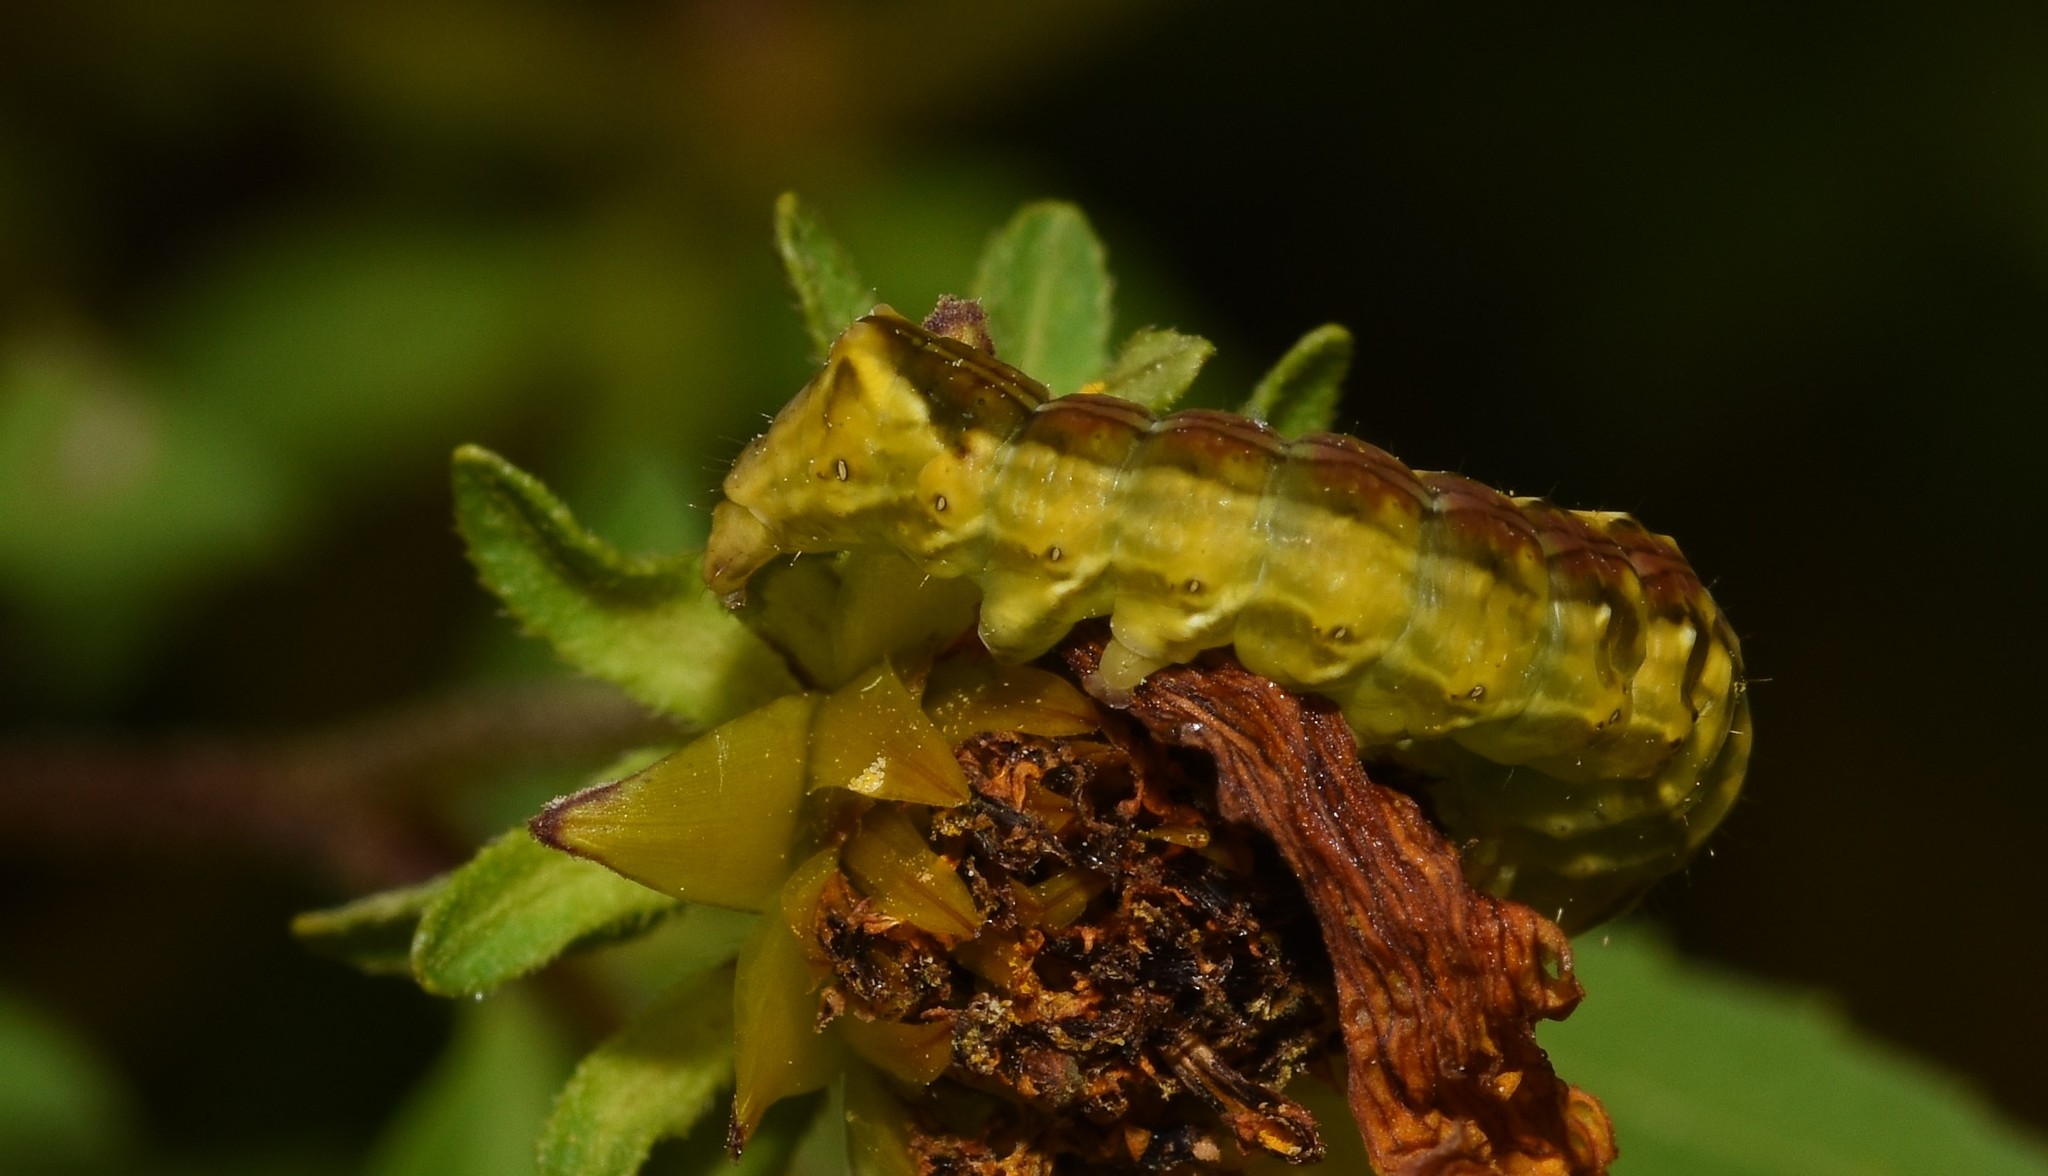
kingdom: Animalia
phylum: Arthropoda
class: Insecta
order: Lepidoptera
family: Noctuidae
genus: Cirrhophanus
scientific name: Cirrhophanus triangulifer
